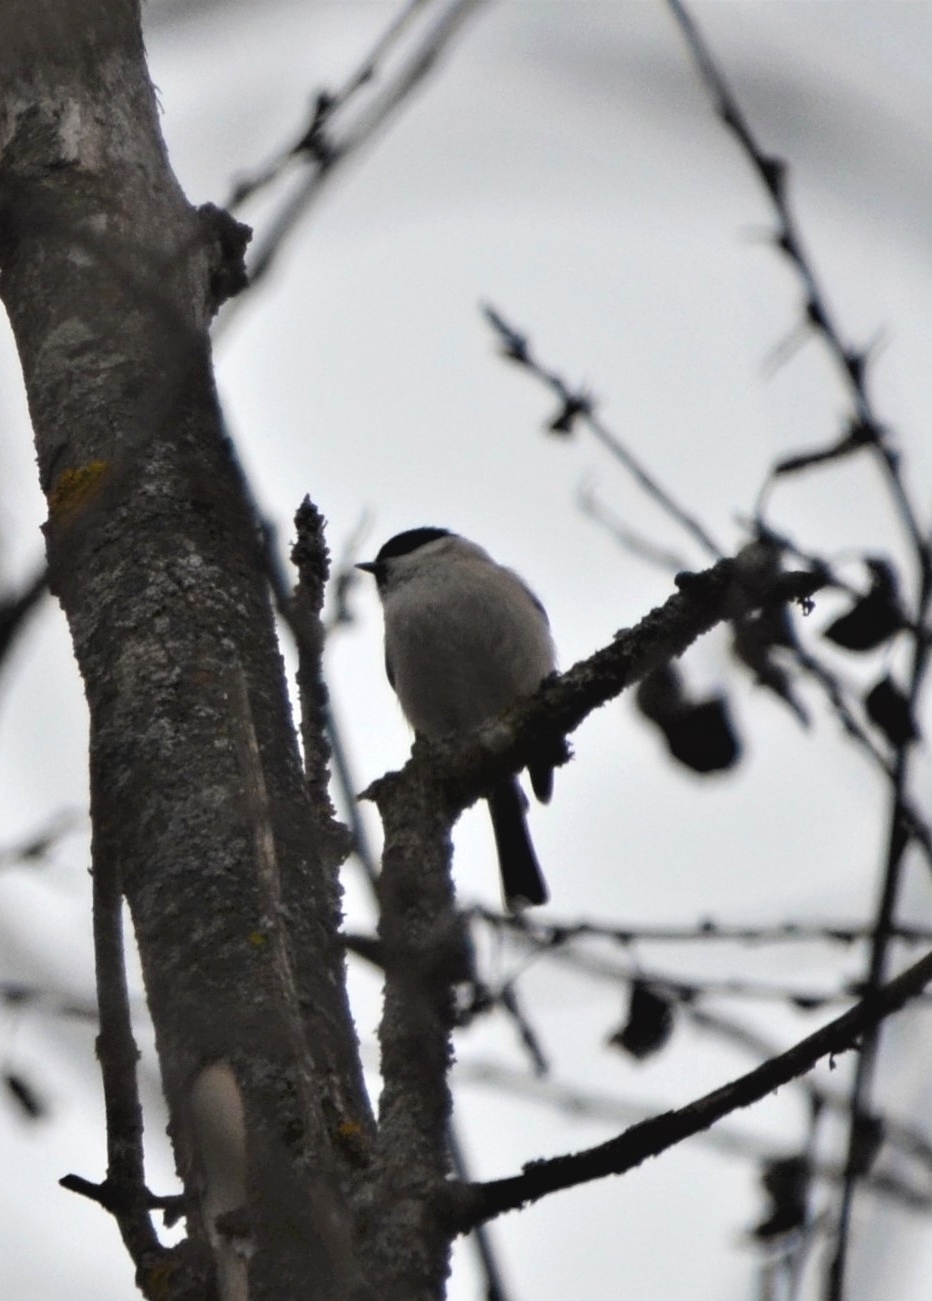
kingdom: Animalia
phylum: Chordata
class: Aves
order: Passeriformes
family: Paridae
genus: Poecile
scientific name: Poecile palustris
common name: Marsh tit
